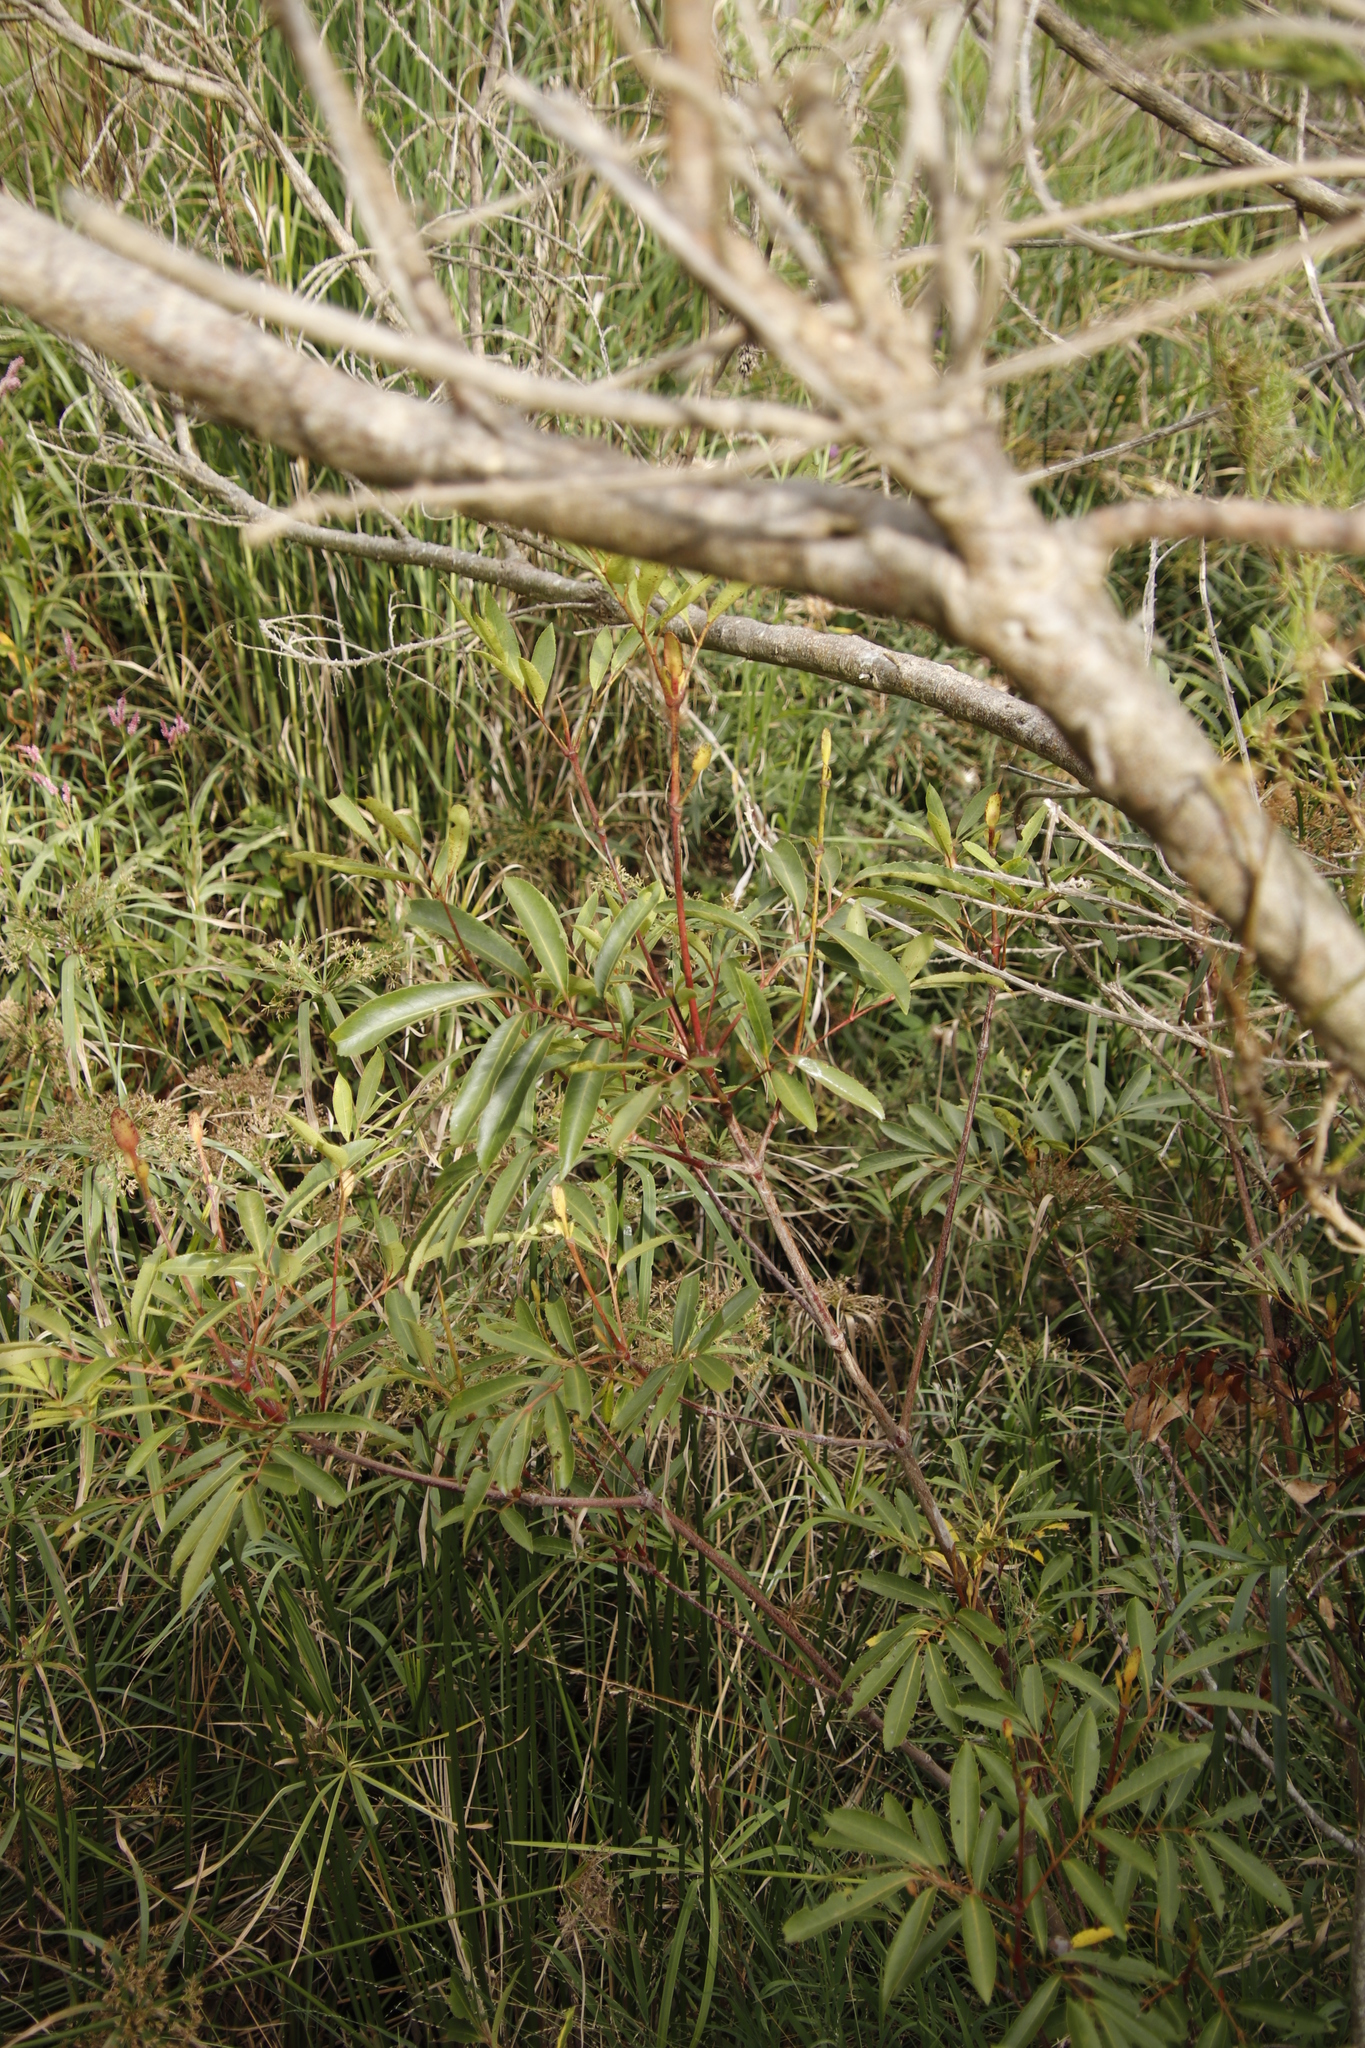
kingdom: Plantae
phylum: Tracheophyta
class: Magnoliopsida
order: Oxalidales
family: Cunoniaceae
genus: Cunonia
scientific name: Cunonia capensis
